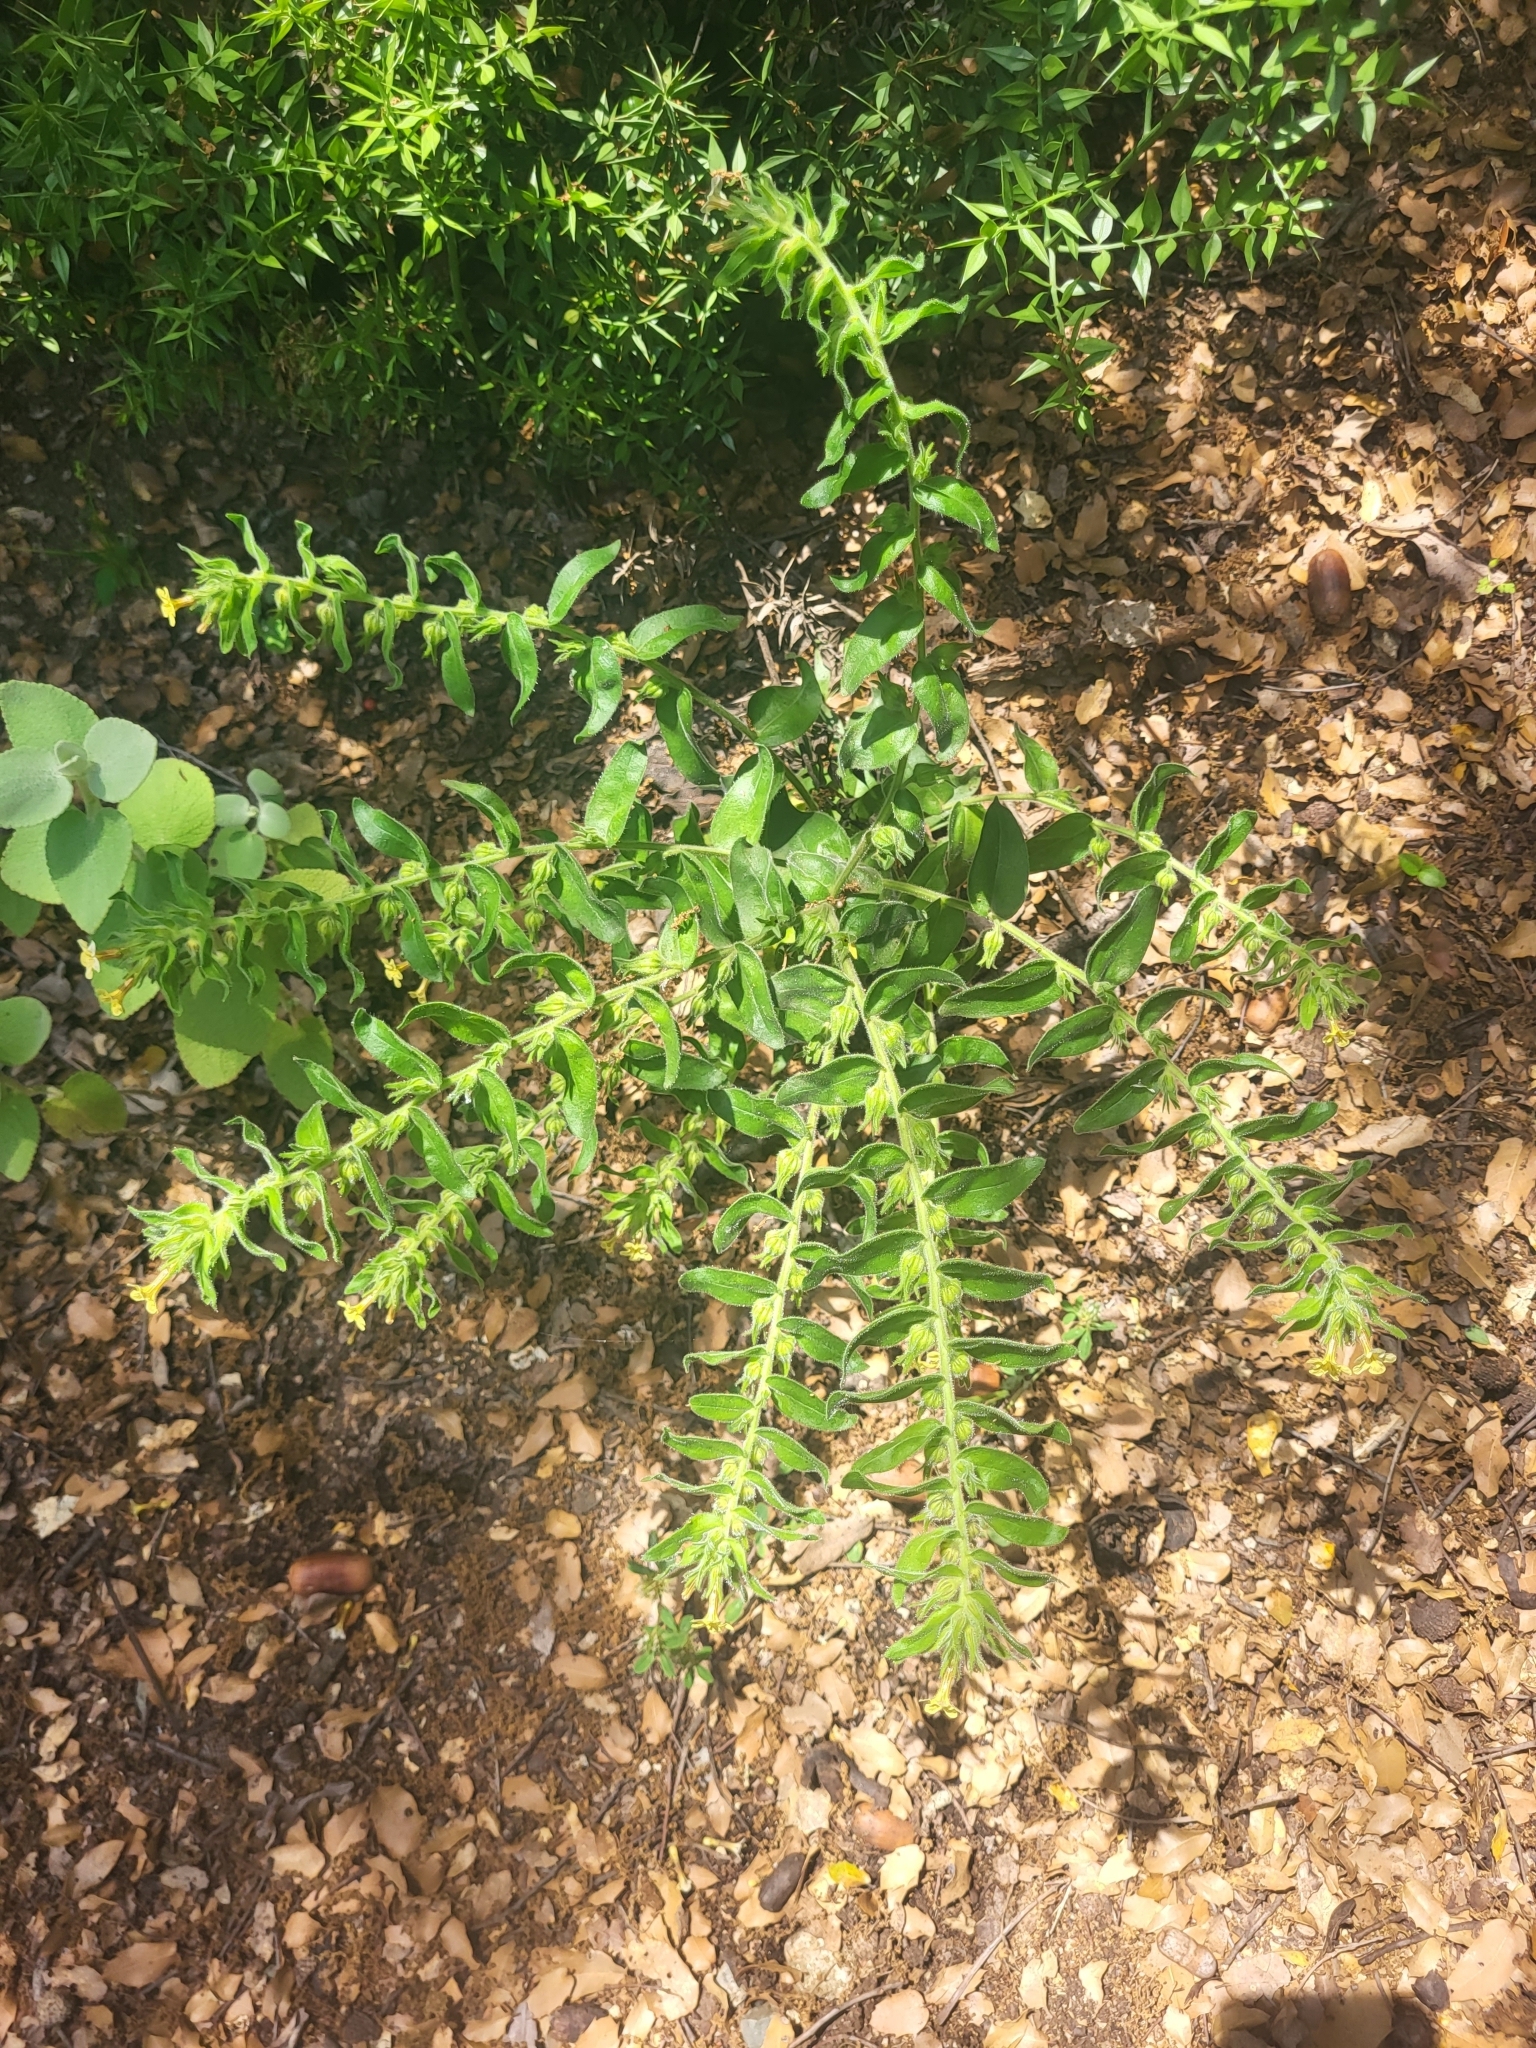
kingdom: Plantae
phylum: Tracheophyta
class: Magnoliopsida
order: Boraginales
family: Boraginaceae
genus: Alkanna
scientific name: Alkanna graeca
